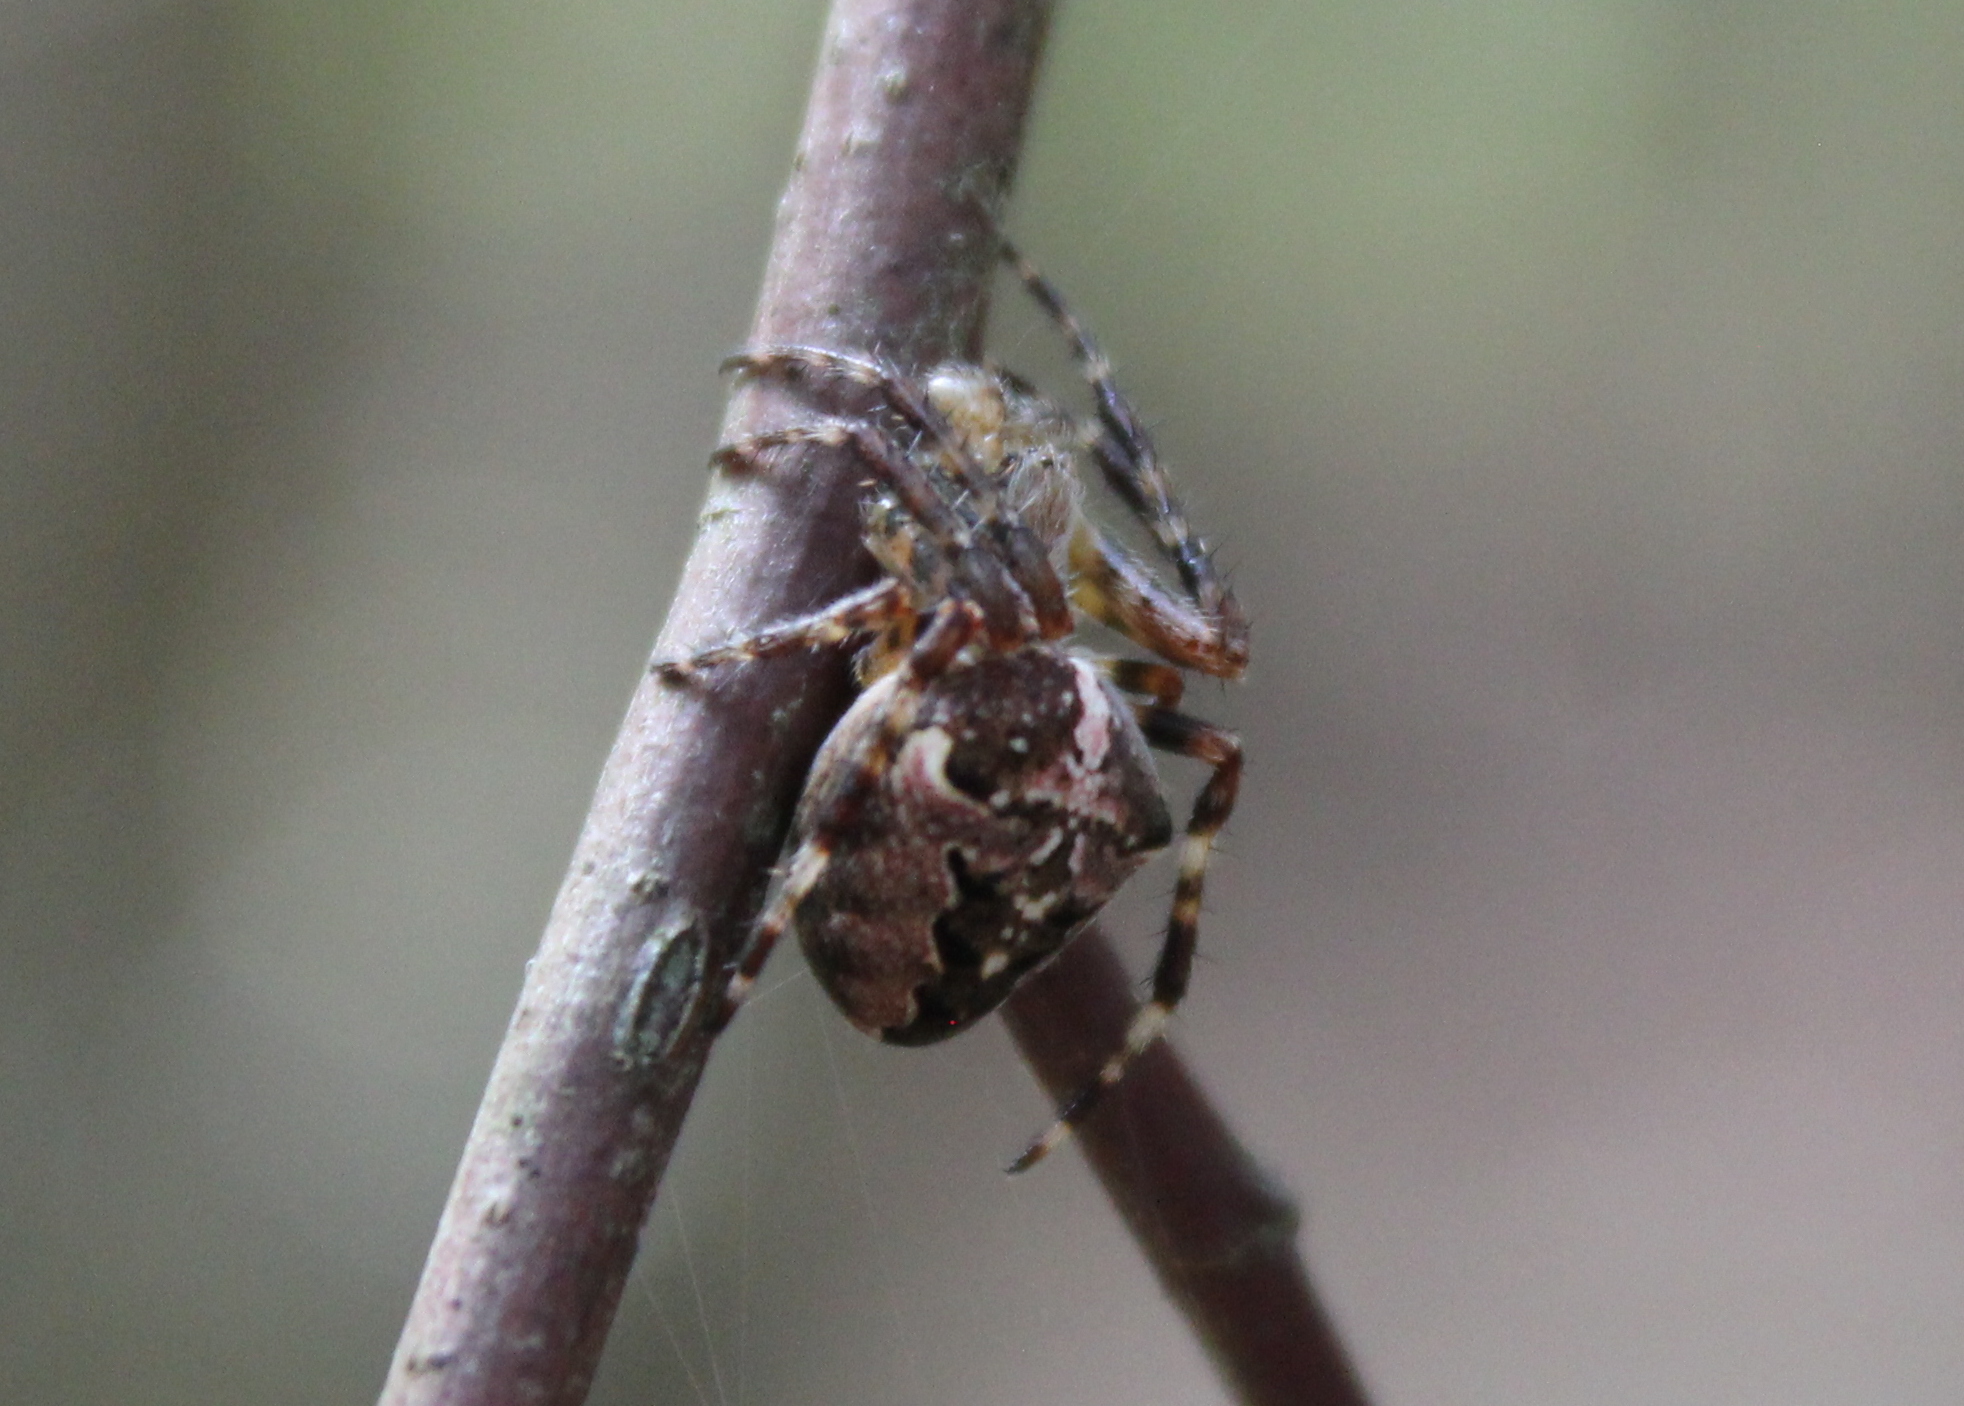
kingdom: Animalia
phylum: Arthropoda
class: Arachnida
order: Araneae
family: Araneidae
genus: Araneus
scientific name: Araneus nordmanni
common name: Nordmann's orbweaver
